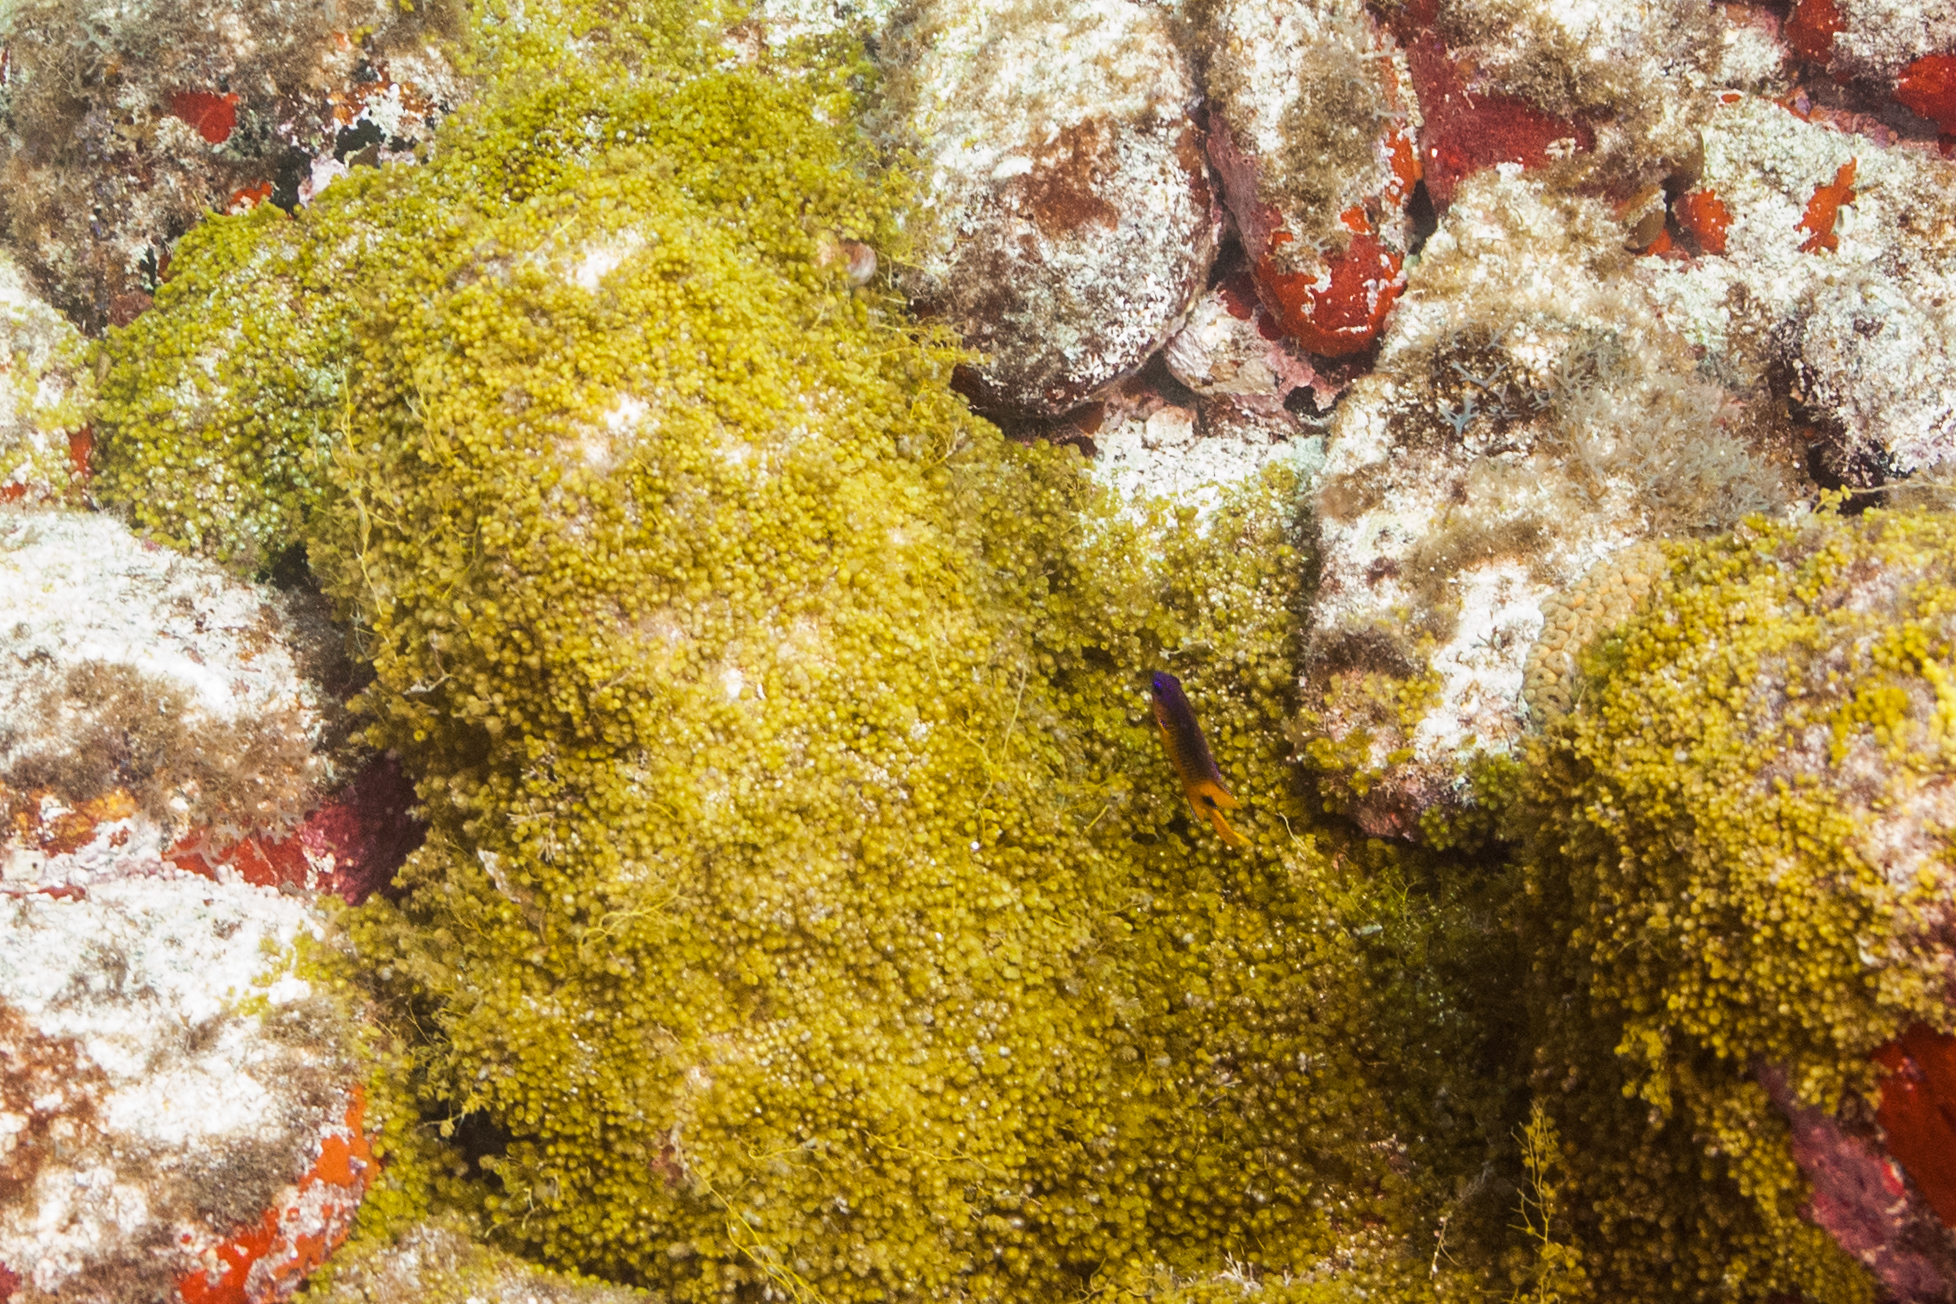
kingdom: Animalia
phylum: Chordata
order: Perciformes
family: Pomacentridae
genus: Stegastes
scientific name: Stegastes rocasensis
